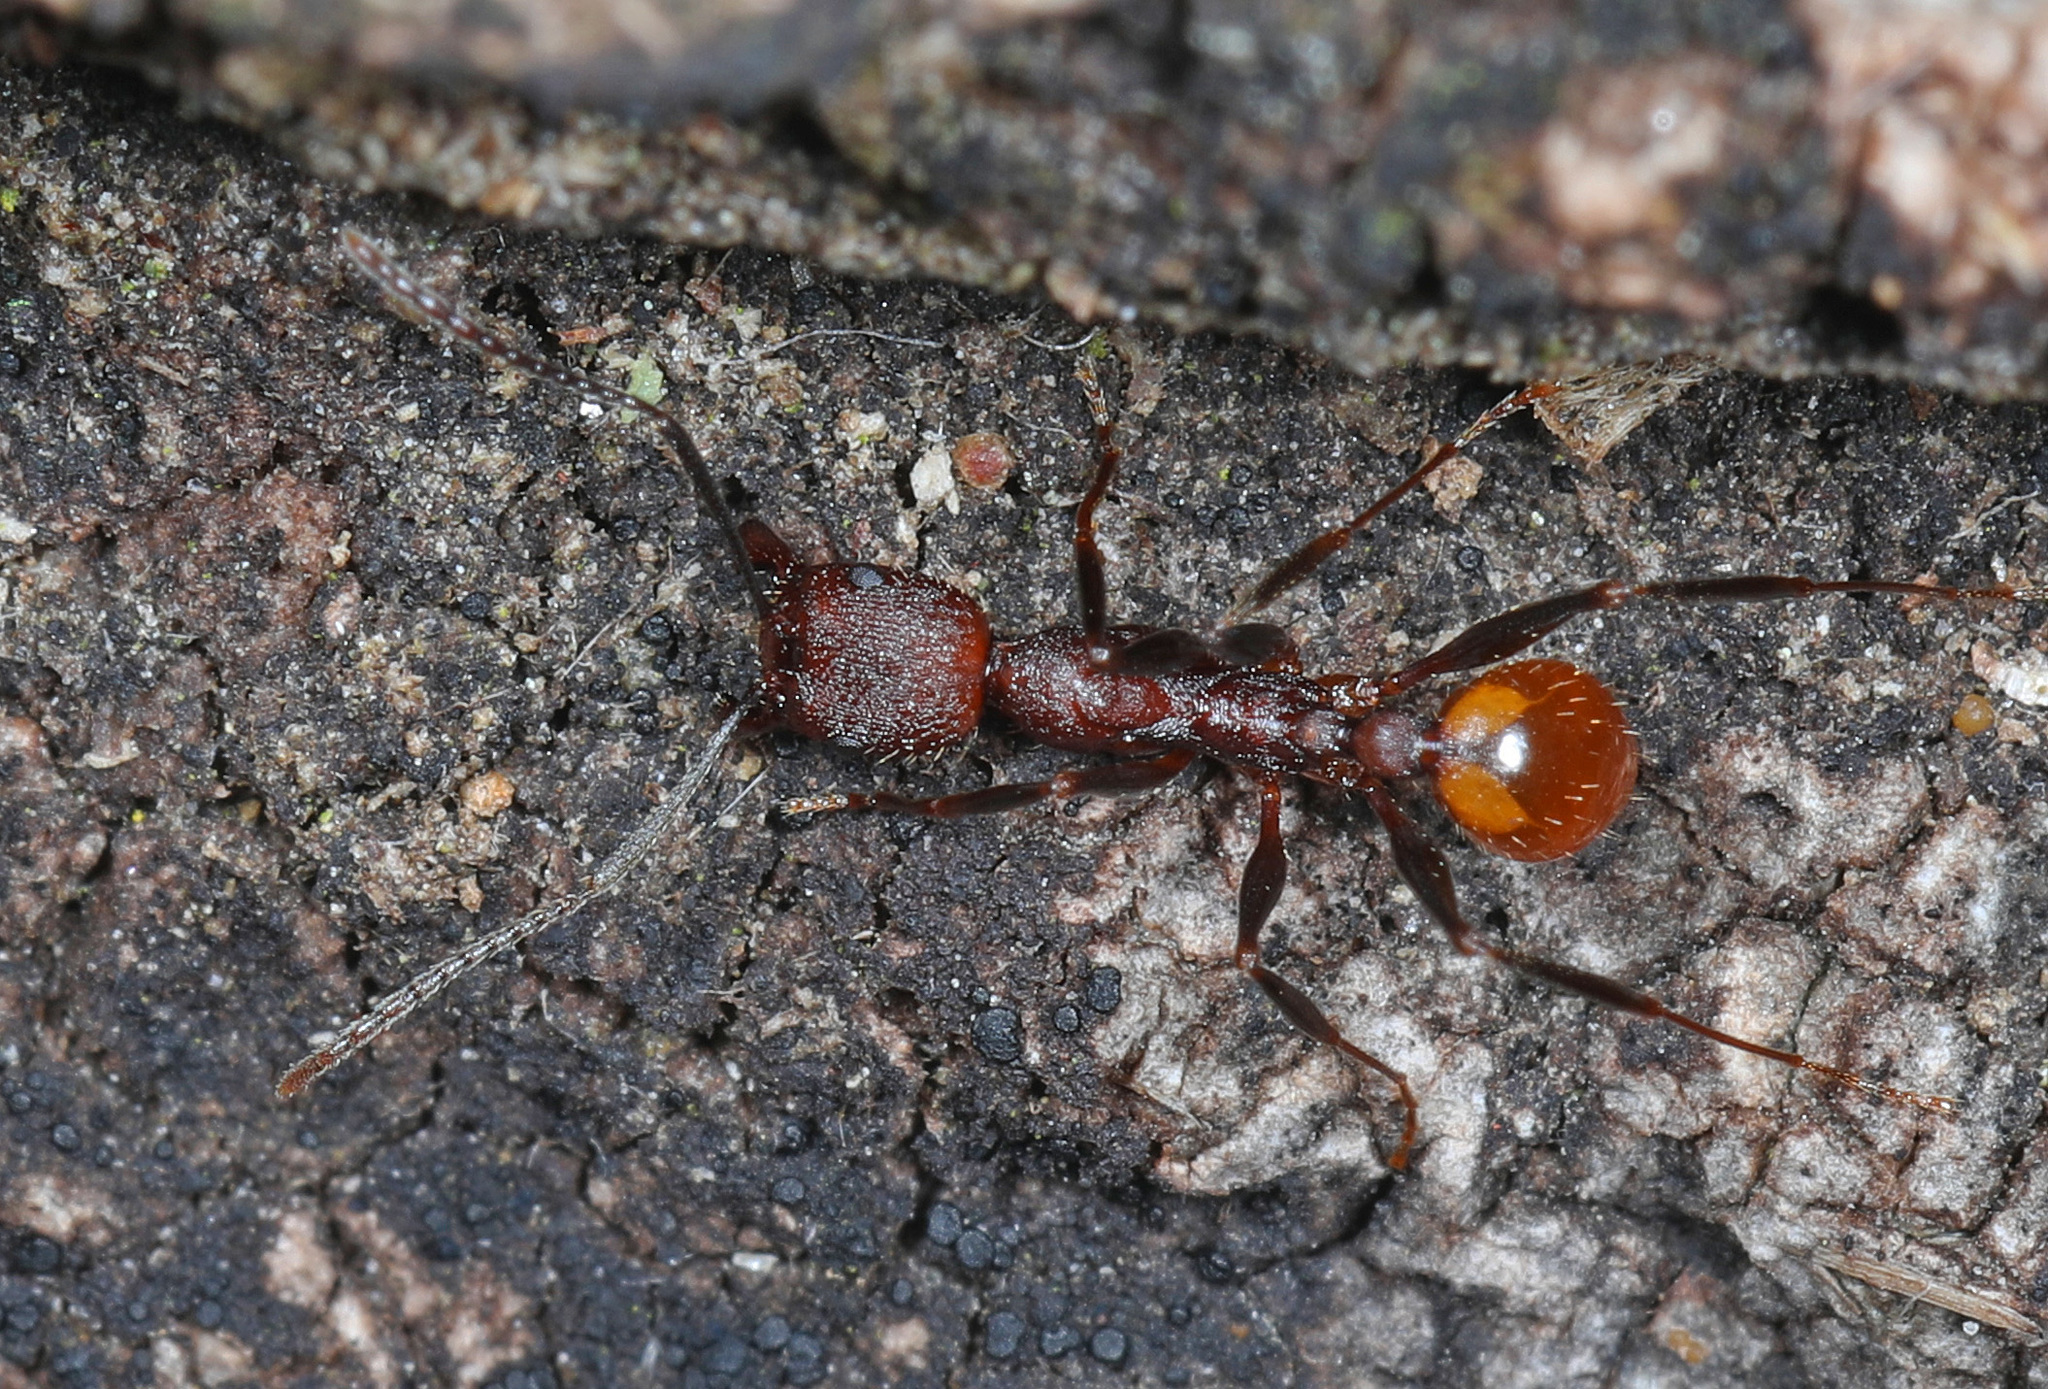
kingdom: Animalia
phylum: Arthropoda
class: Insecta
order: Hymenoptera
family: Formicidae
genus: Aphaenogaster
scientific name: Aphaenogaster lamellidens
